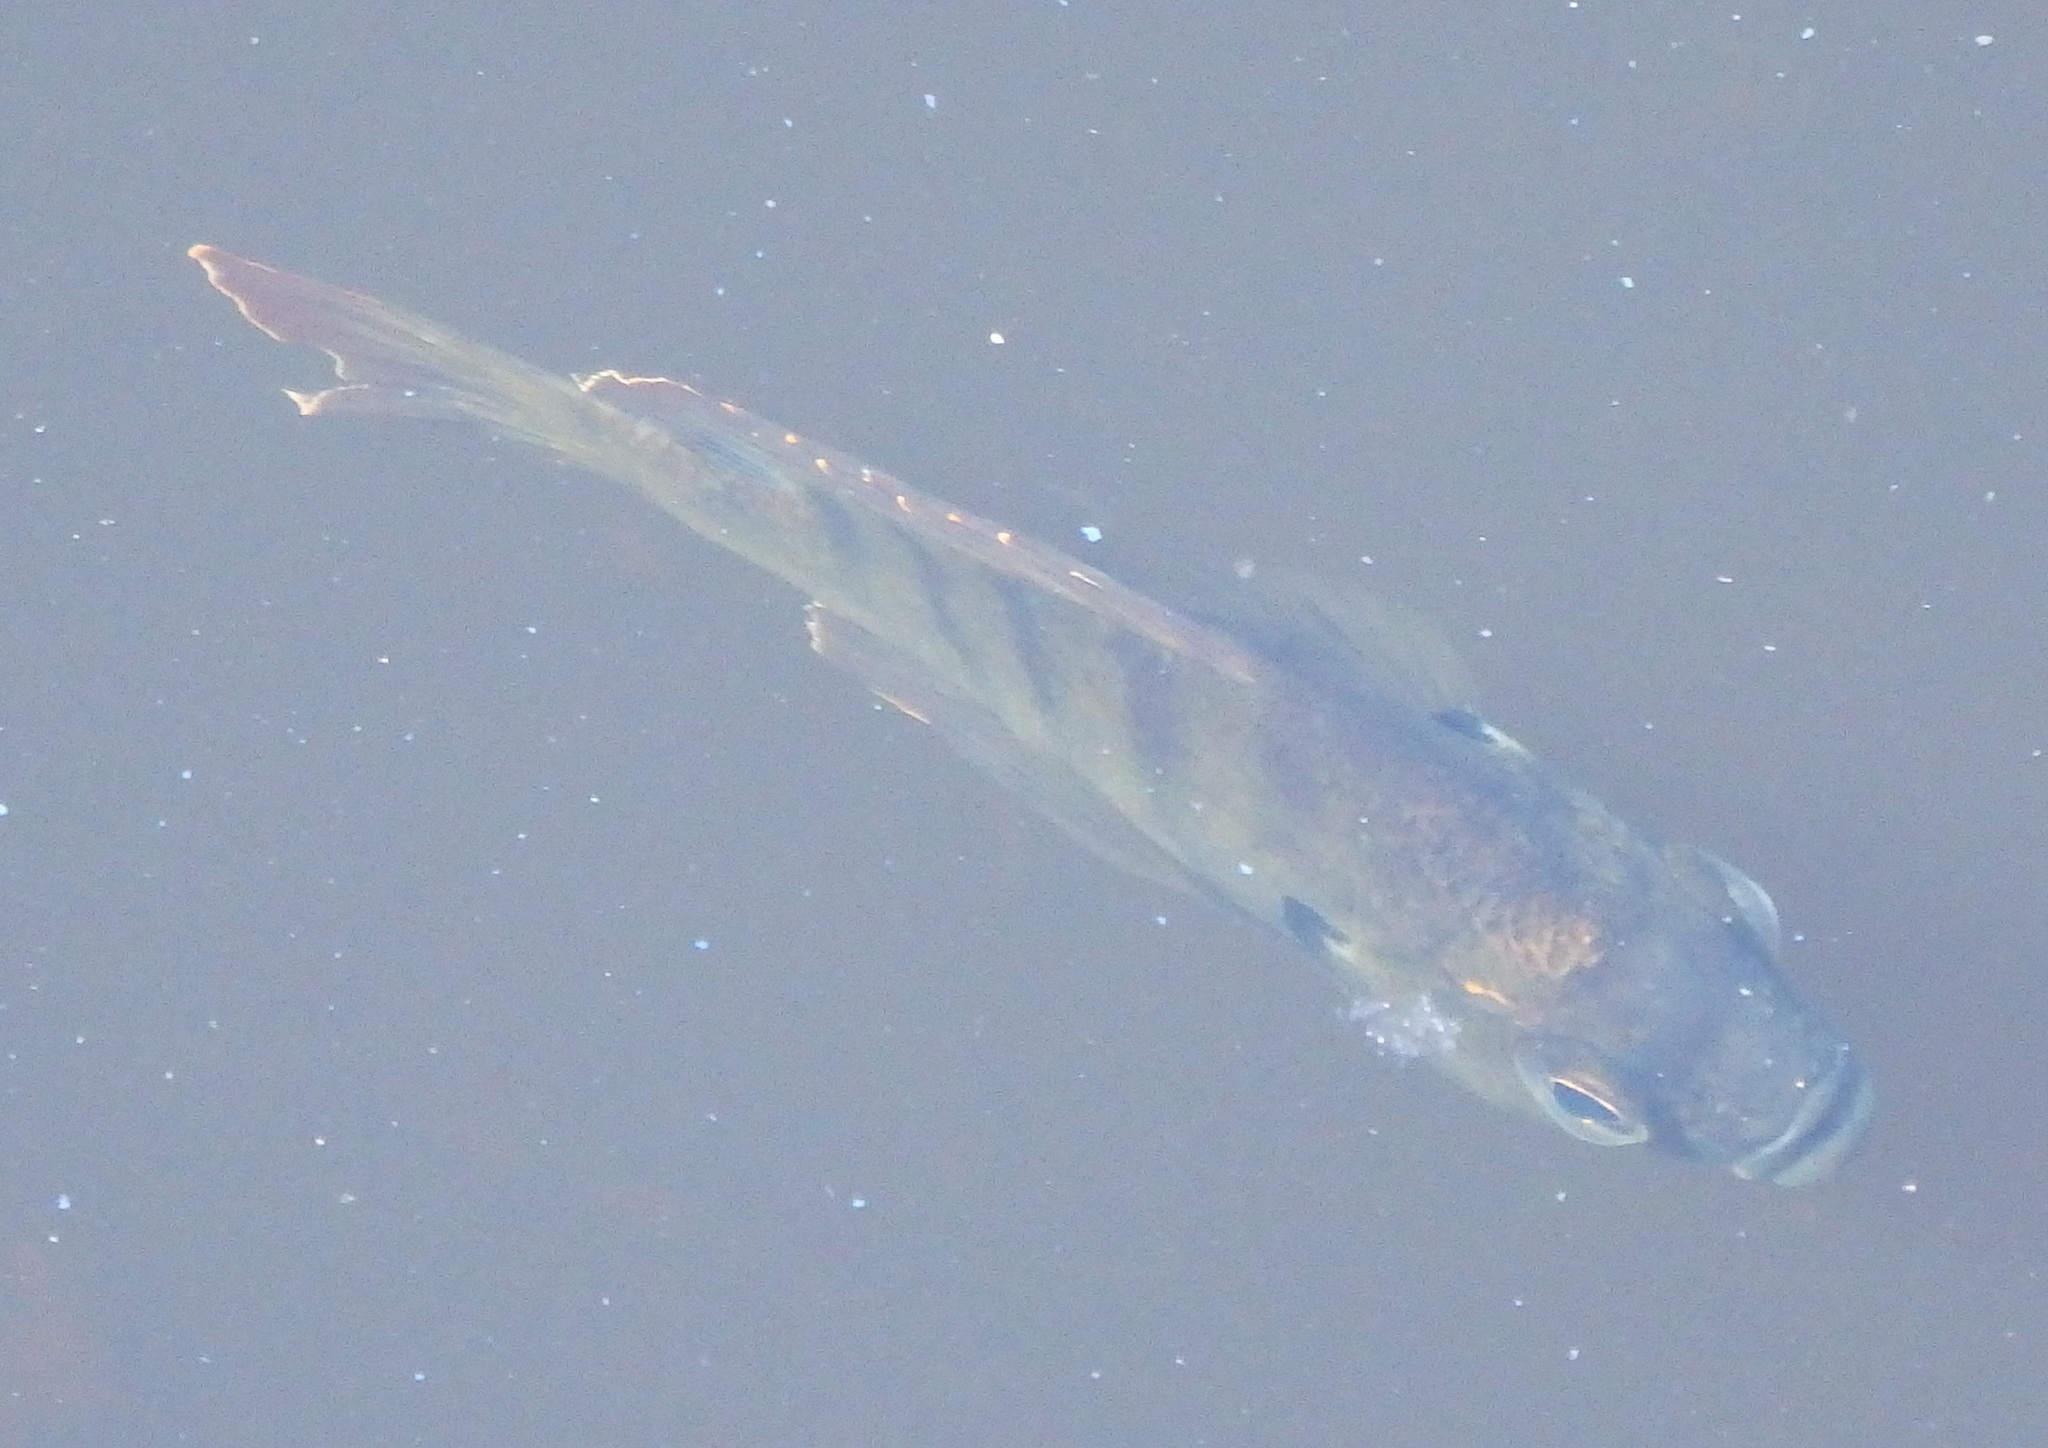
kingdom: Animalia
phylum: Chordata
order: Perciformes
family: Centrarchidae
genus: Lepomis
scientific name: Lepomis macrochirus
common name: Bluegill
